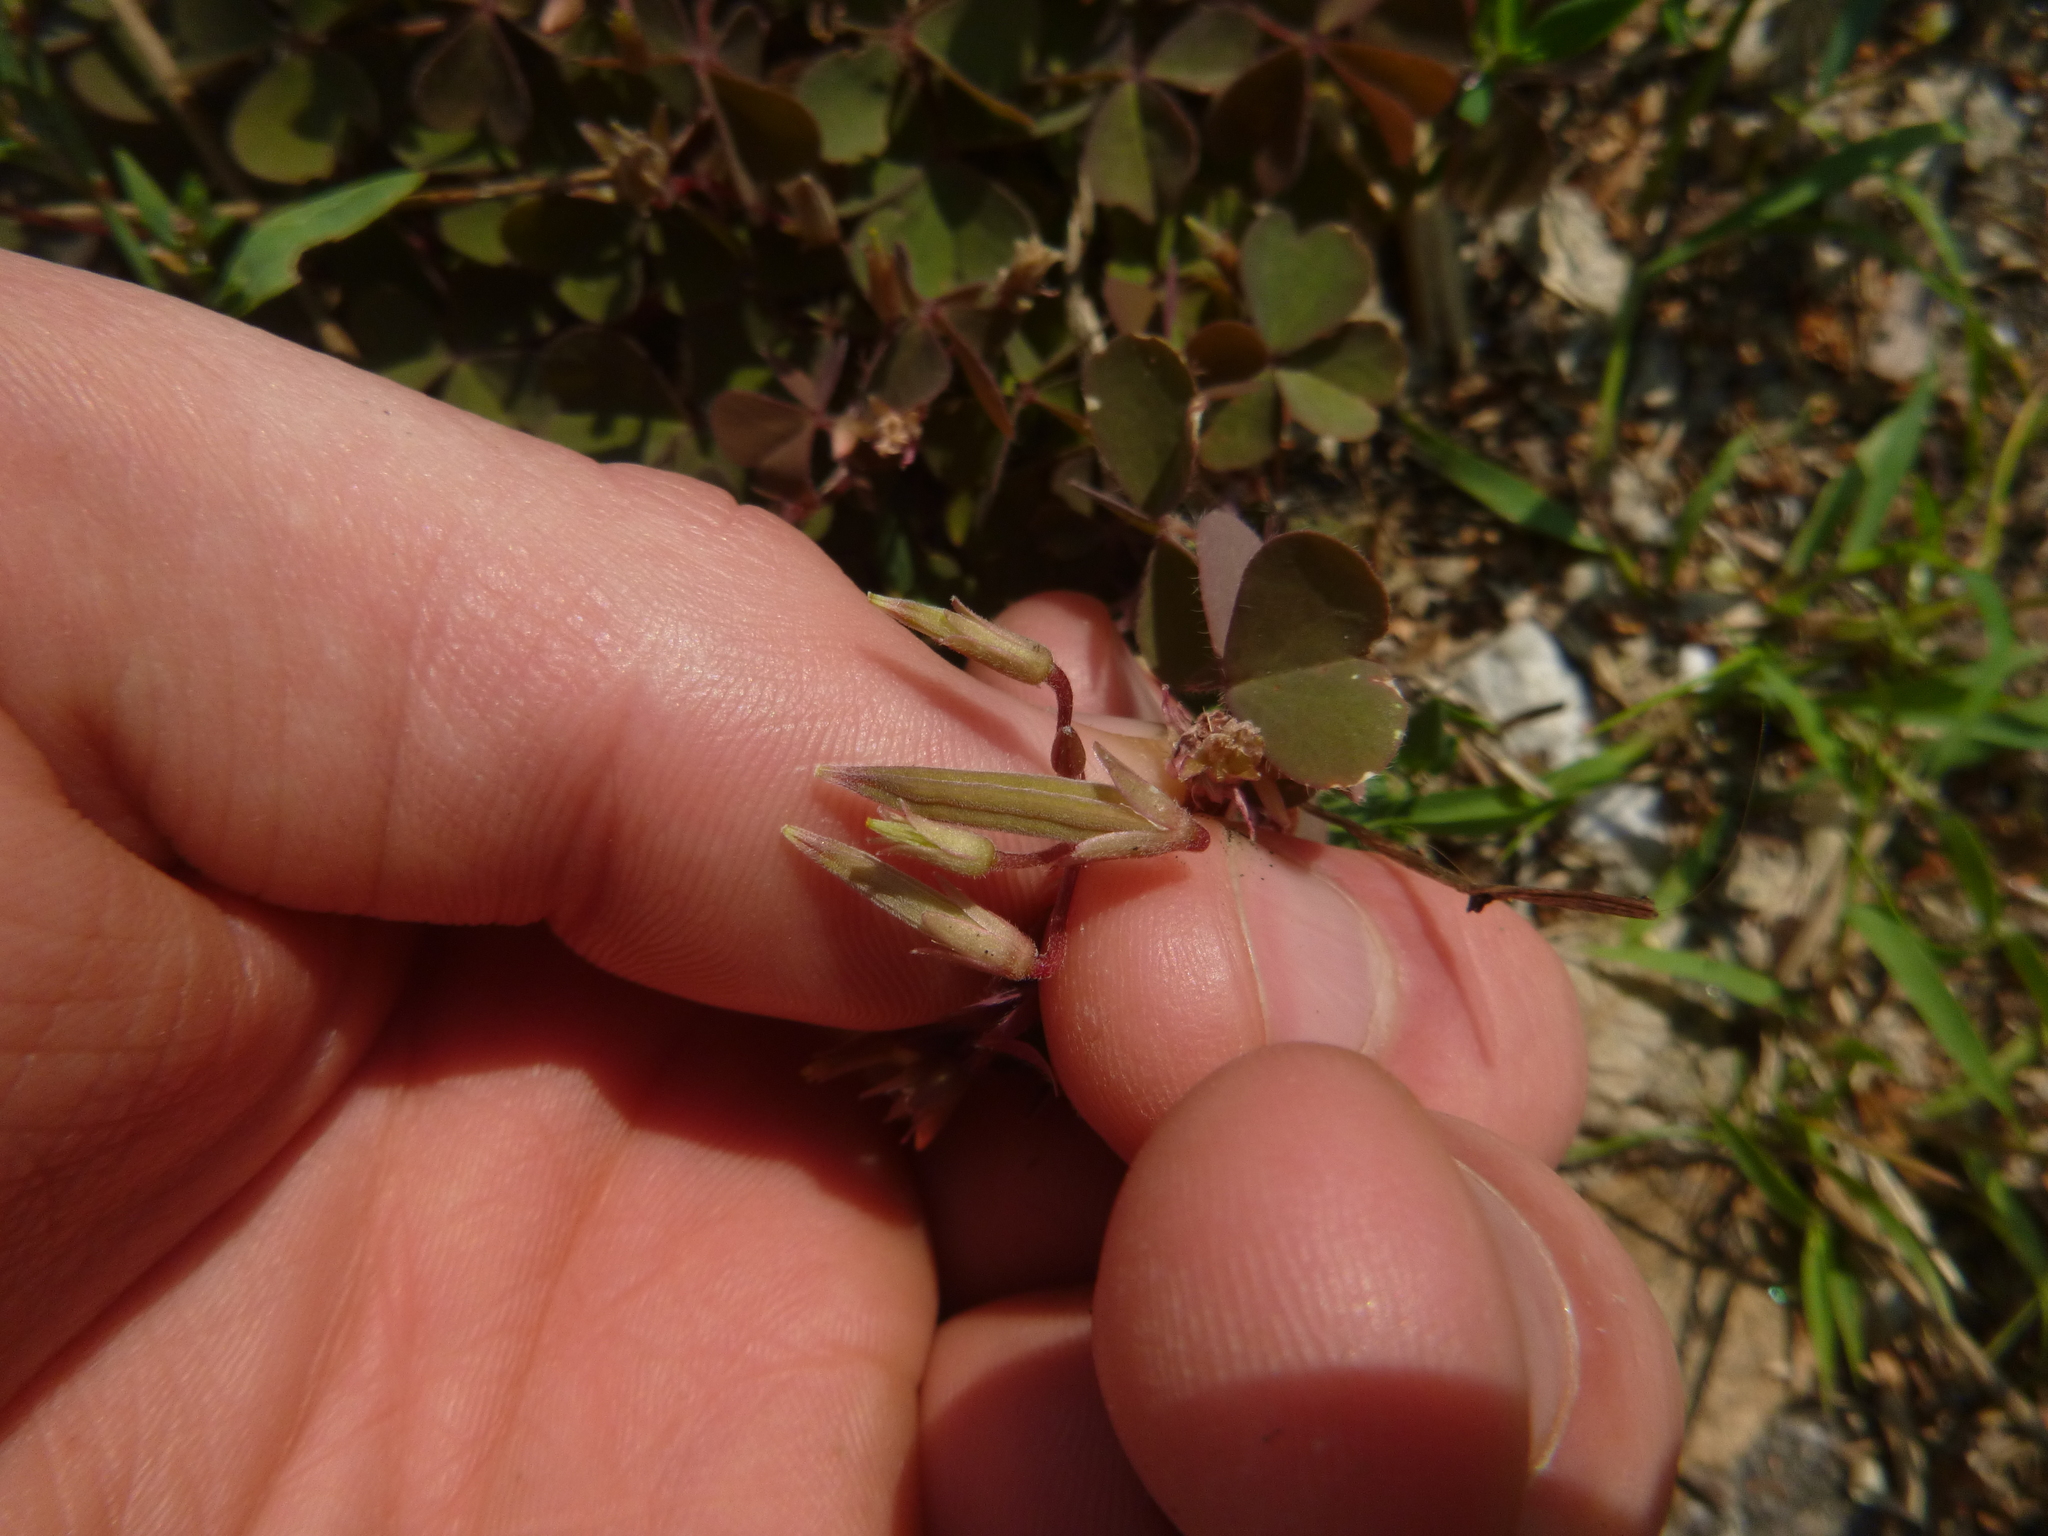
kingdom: Plantae
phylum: Tracheophyta
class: Magnoliopsida
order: Oxalidales
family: Oxalidaceae
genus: Oxalis
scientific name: Oxalis corniculata
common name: Procumbent yellow-sorrel
